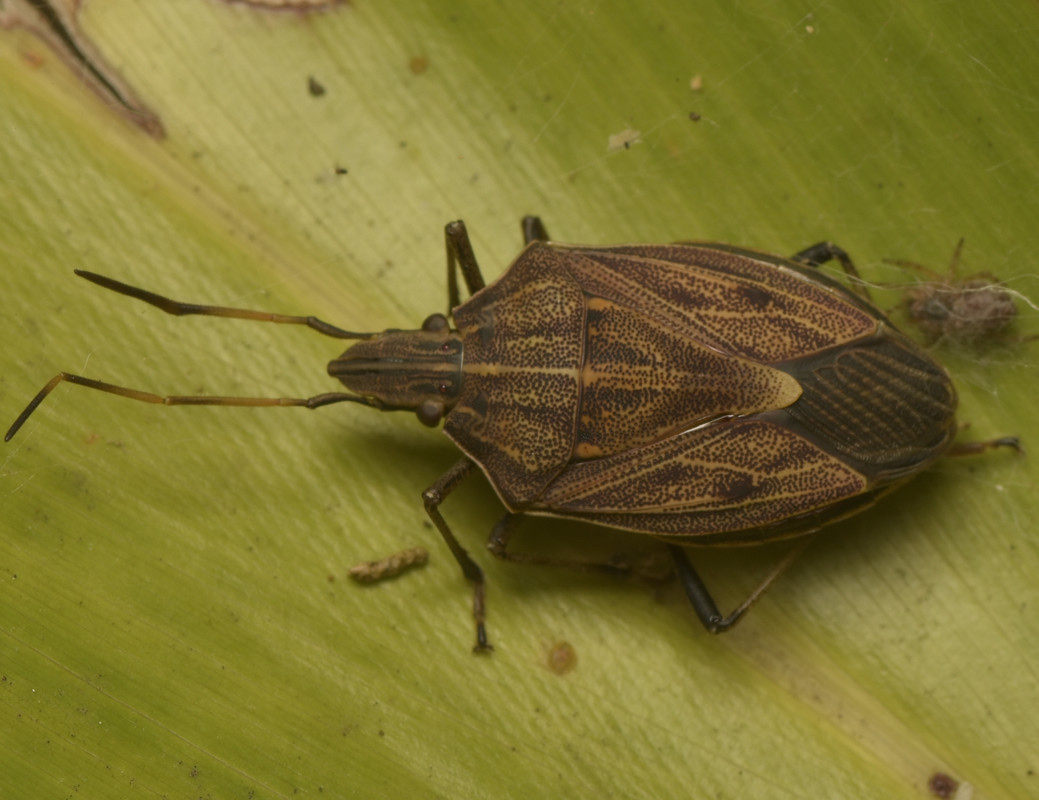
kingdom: Animalia
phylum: Arthropoda
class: Insecta
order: Hemiptera
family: Pentatomidae
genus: Poecilometis
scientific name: Poecilometis
